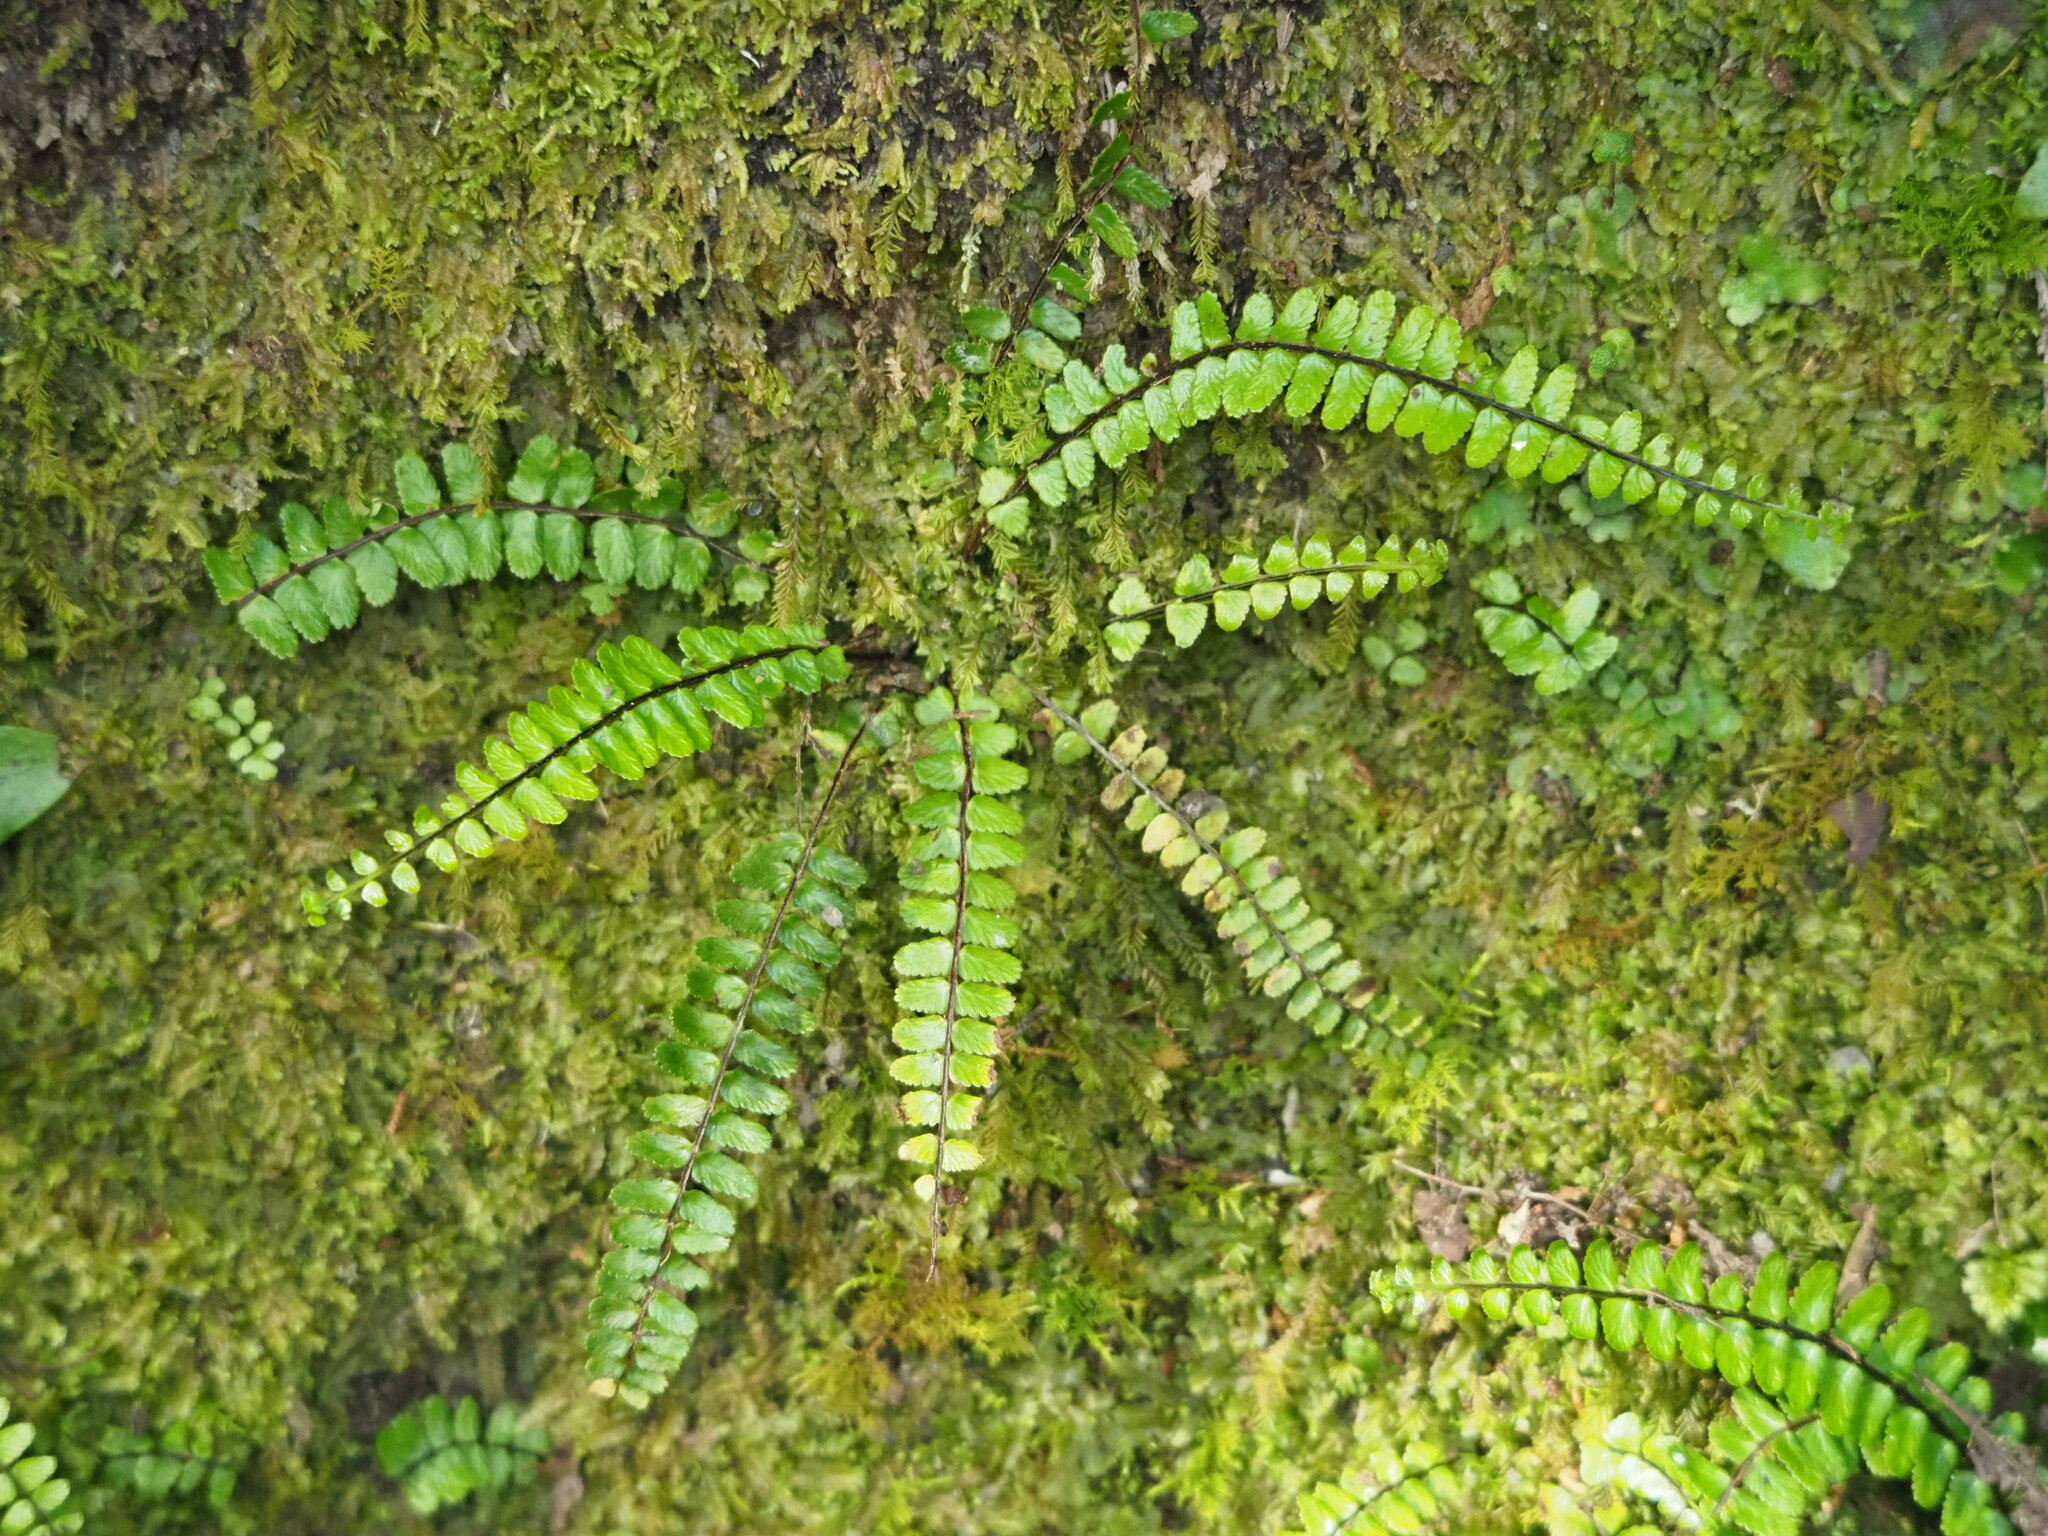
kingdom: Plantae
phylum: Tracheophyta
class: Polypodiopsida
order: Polypodiales
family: Aspleniaceae
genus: Asplenium
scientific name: Asplenium tripteropus
